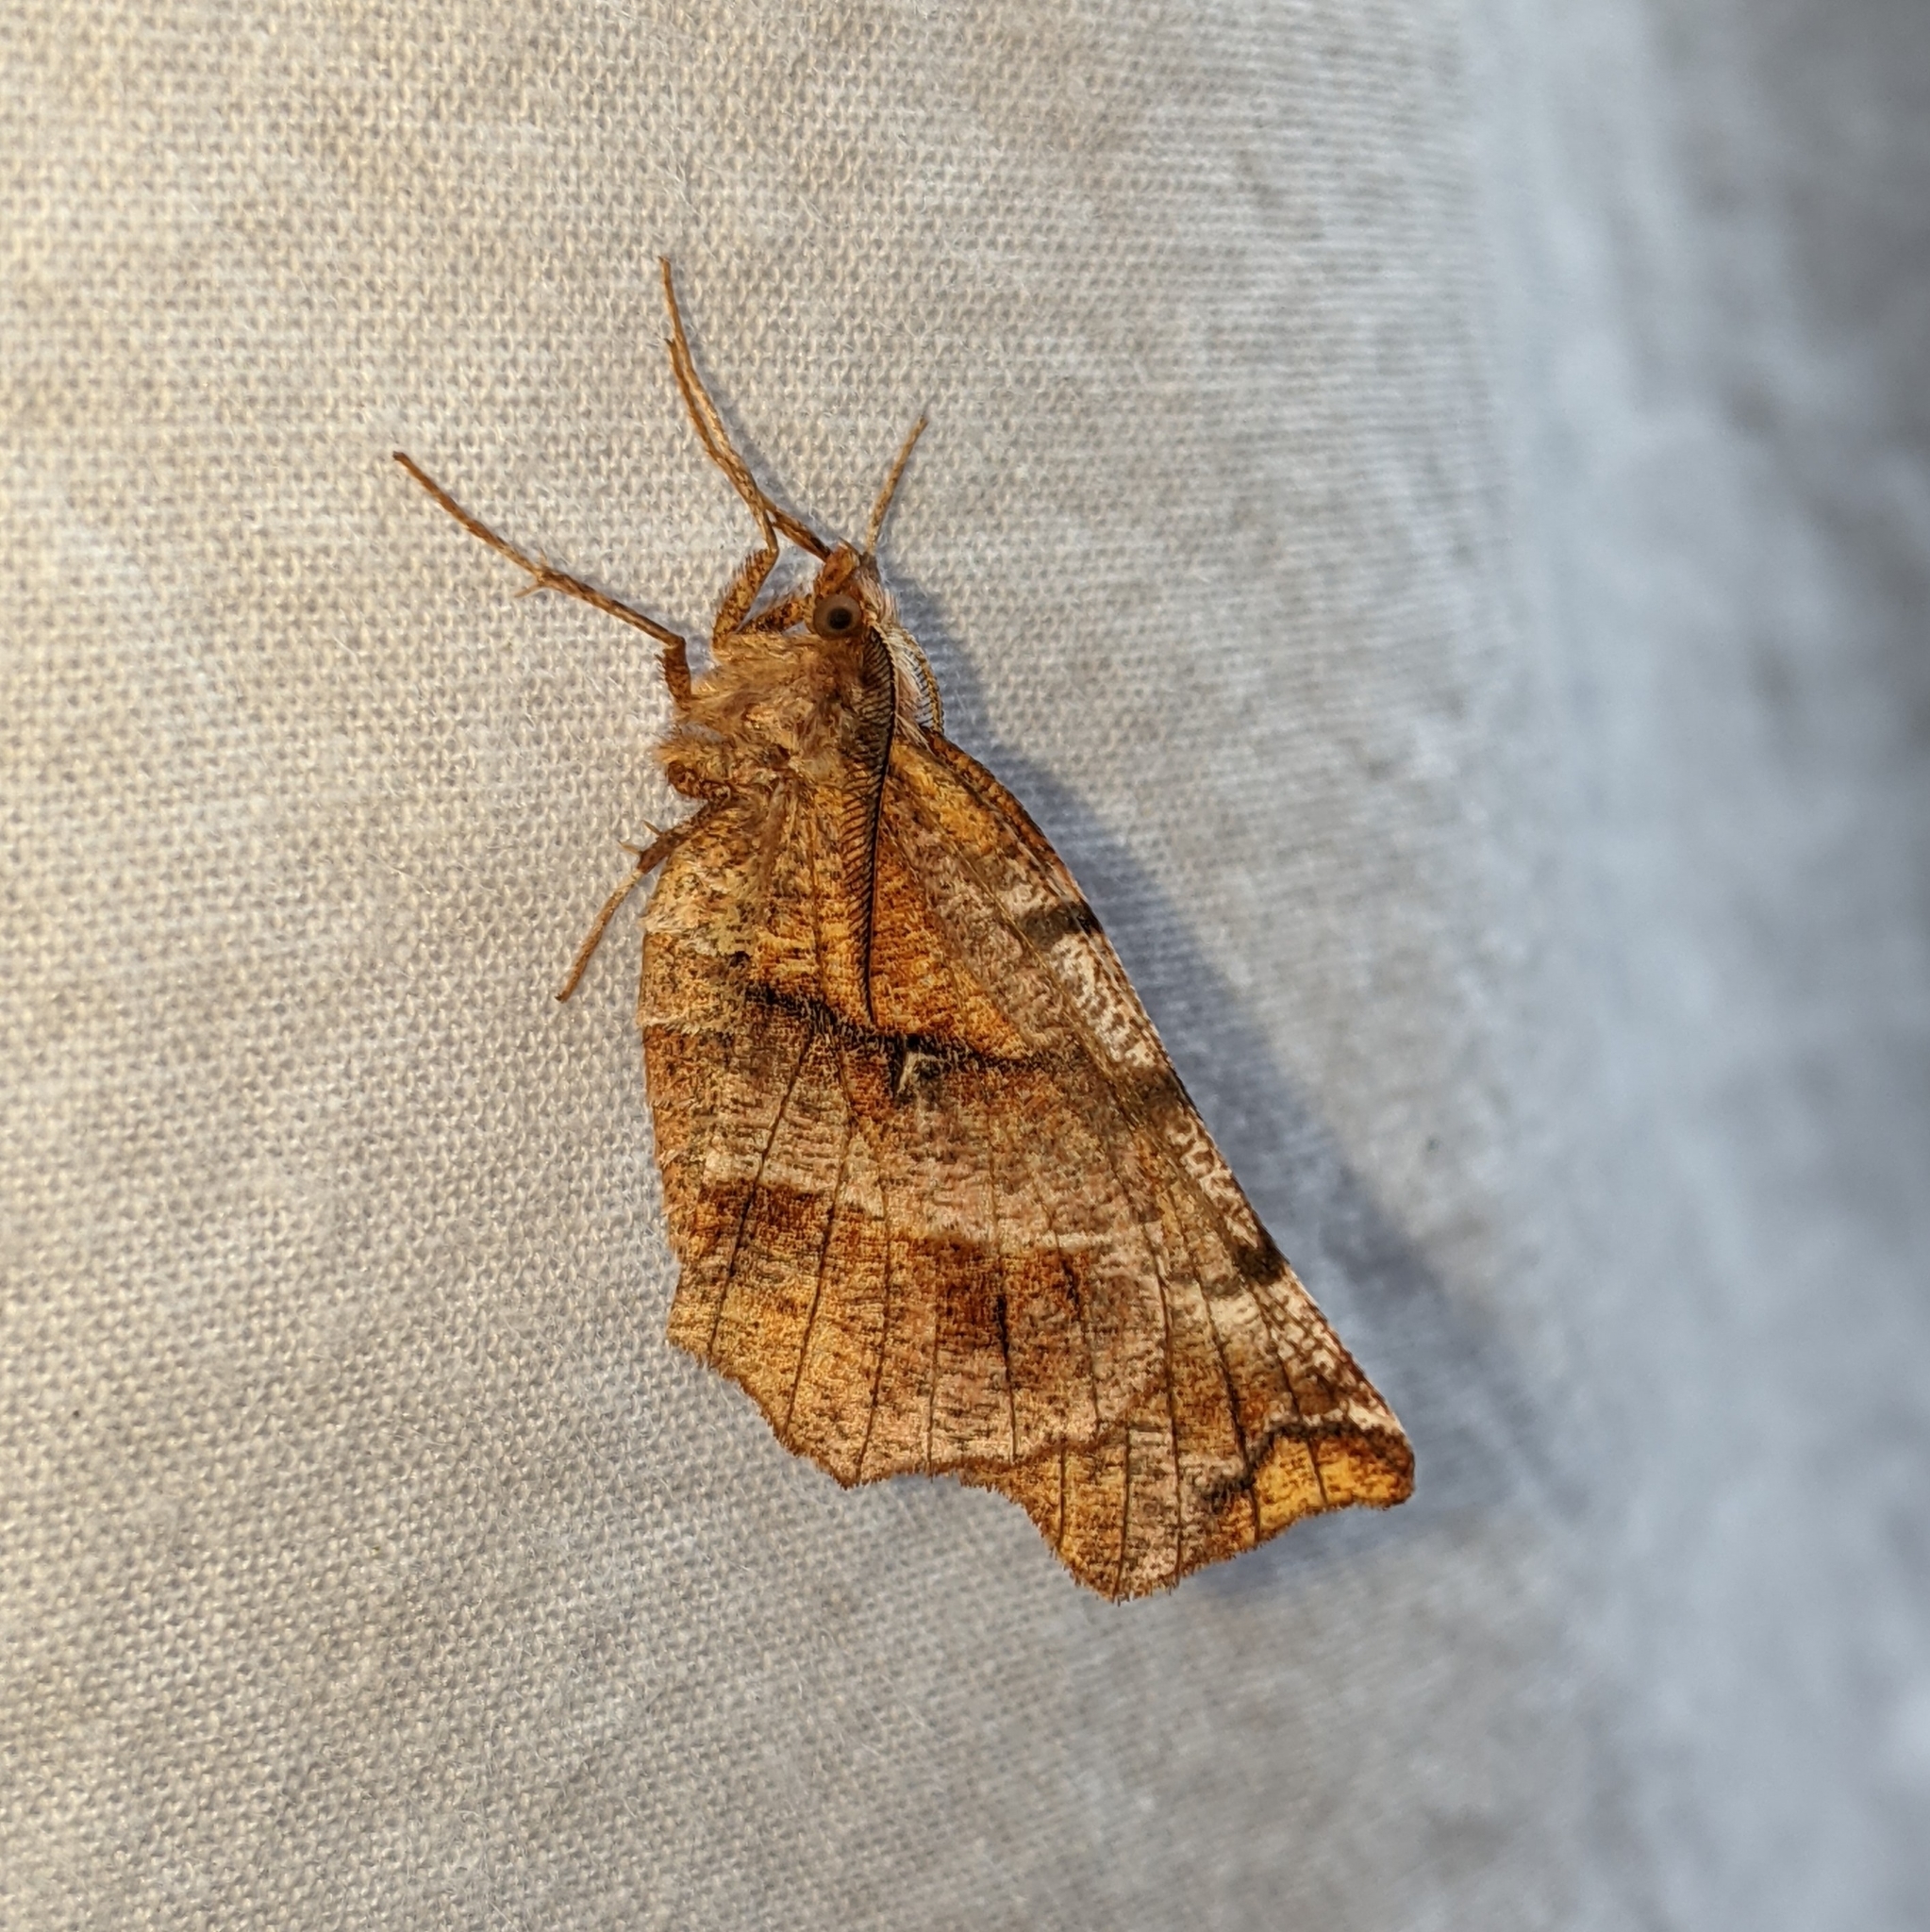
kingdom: Animalia
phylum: Arthropoda
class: Insecta
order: Lepidoptera
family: Geometridae
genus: Selenia
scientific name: Selenia alciphearia
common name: Brown-tipped thorn
